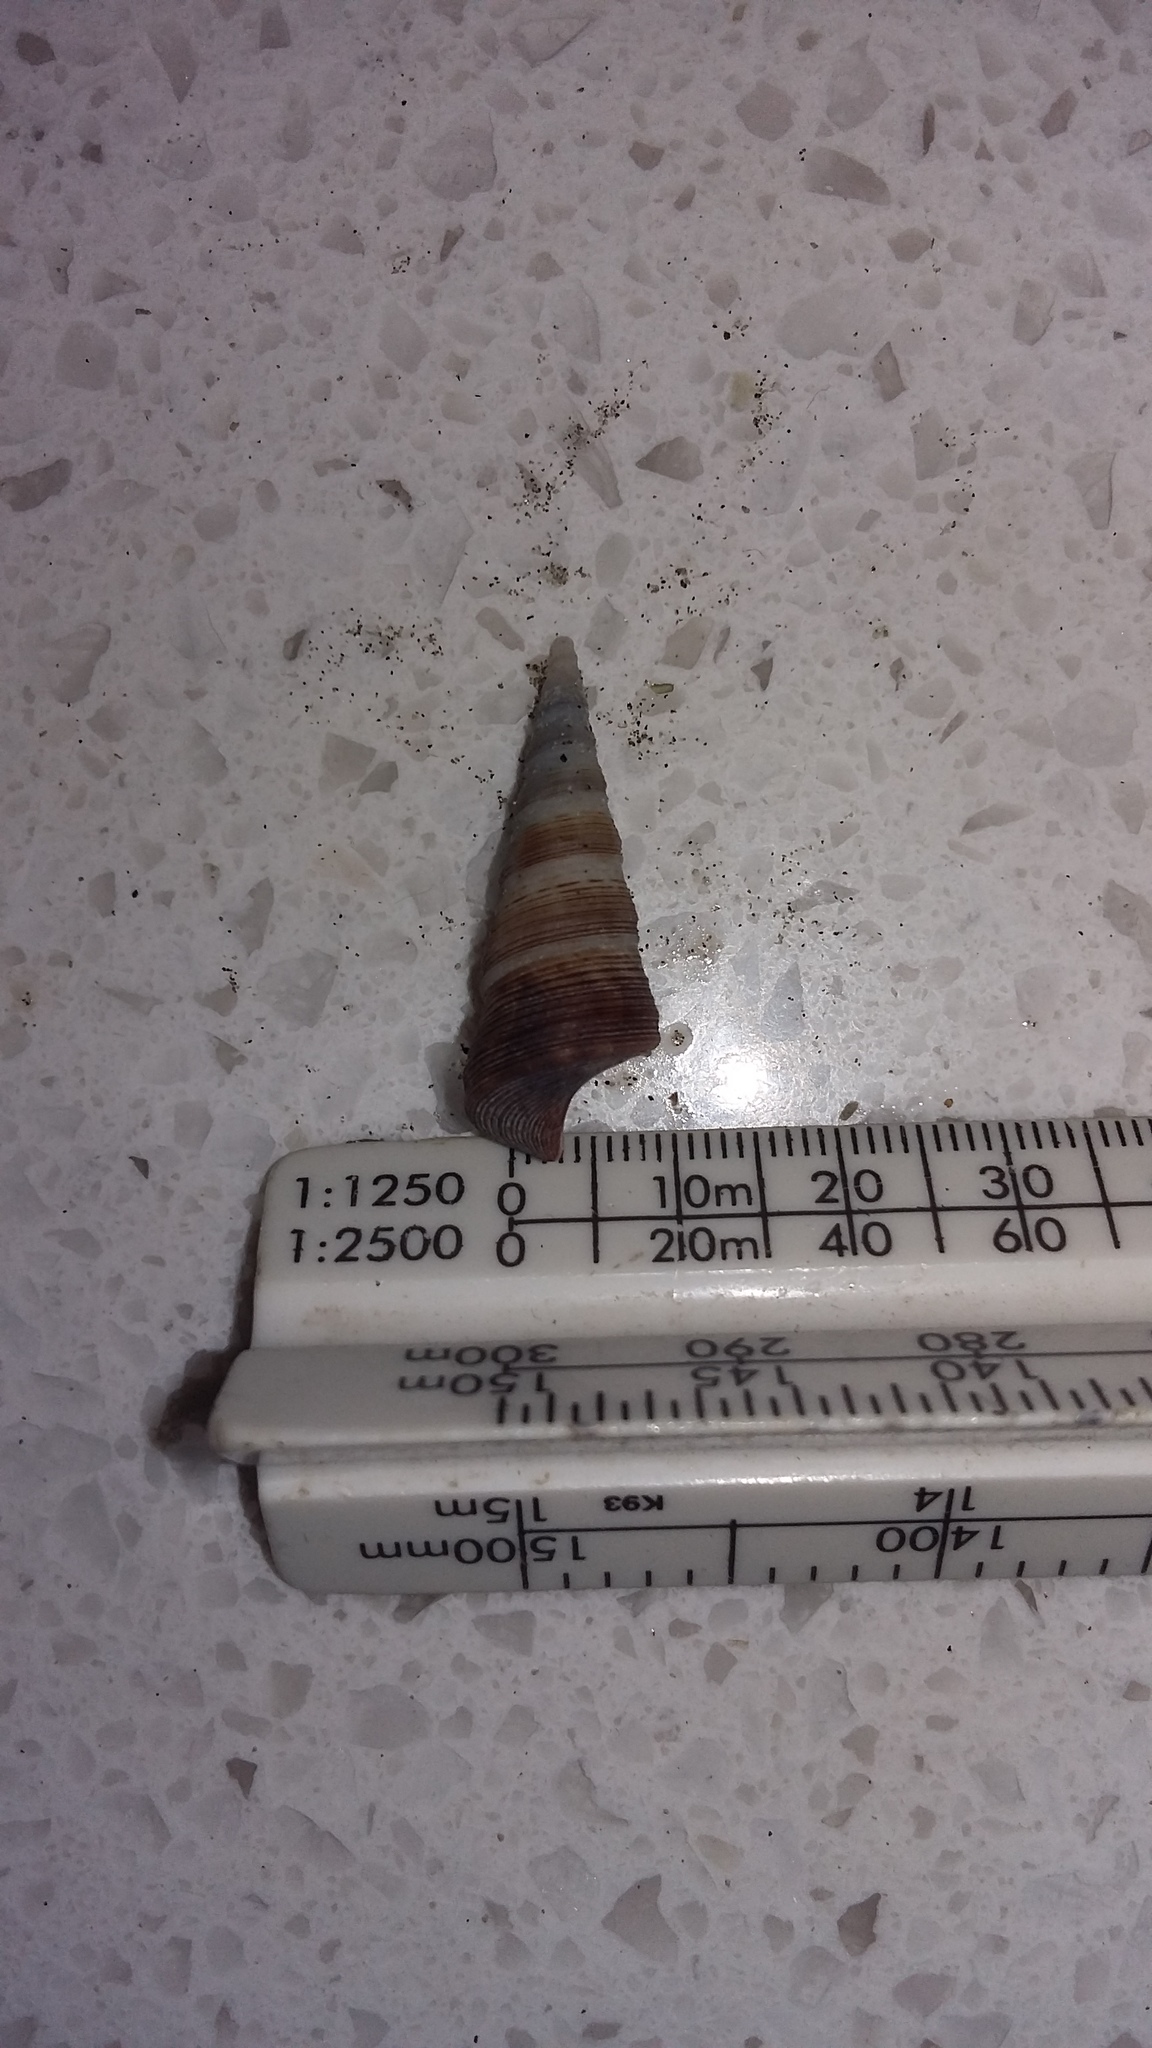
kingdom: Animalia
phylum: Mollusca
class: Gastropoda
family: Turritellidae
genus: Maoricolpus
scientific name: Maoricolpus roseus
